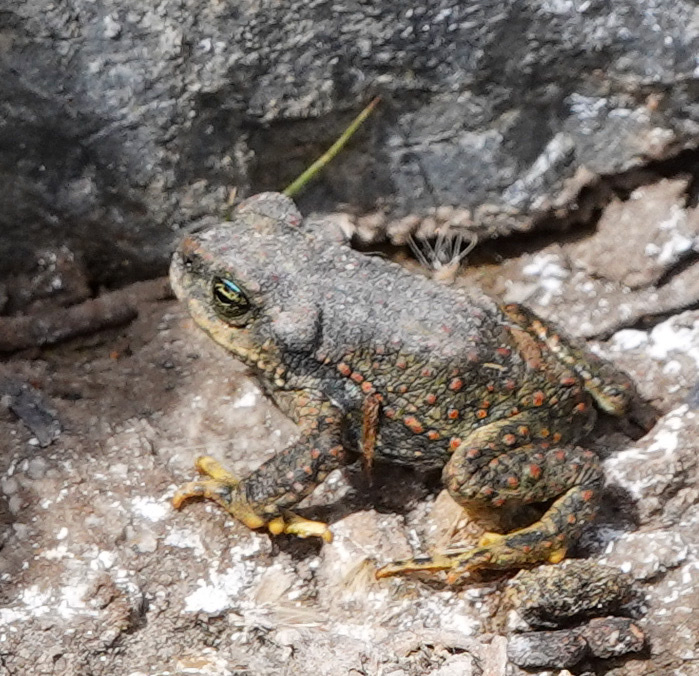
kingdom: Animalia
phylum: Chordata
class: Amphibia
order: Anura
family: Bufonidae
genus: Rhinella
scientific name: Rhinella spinulosa
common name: Warty toad
